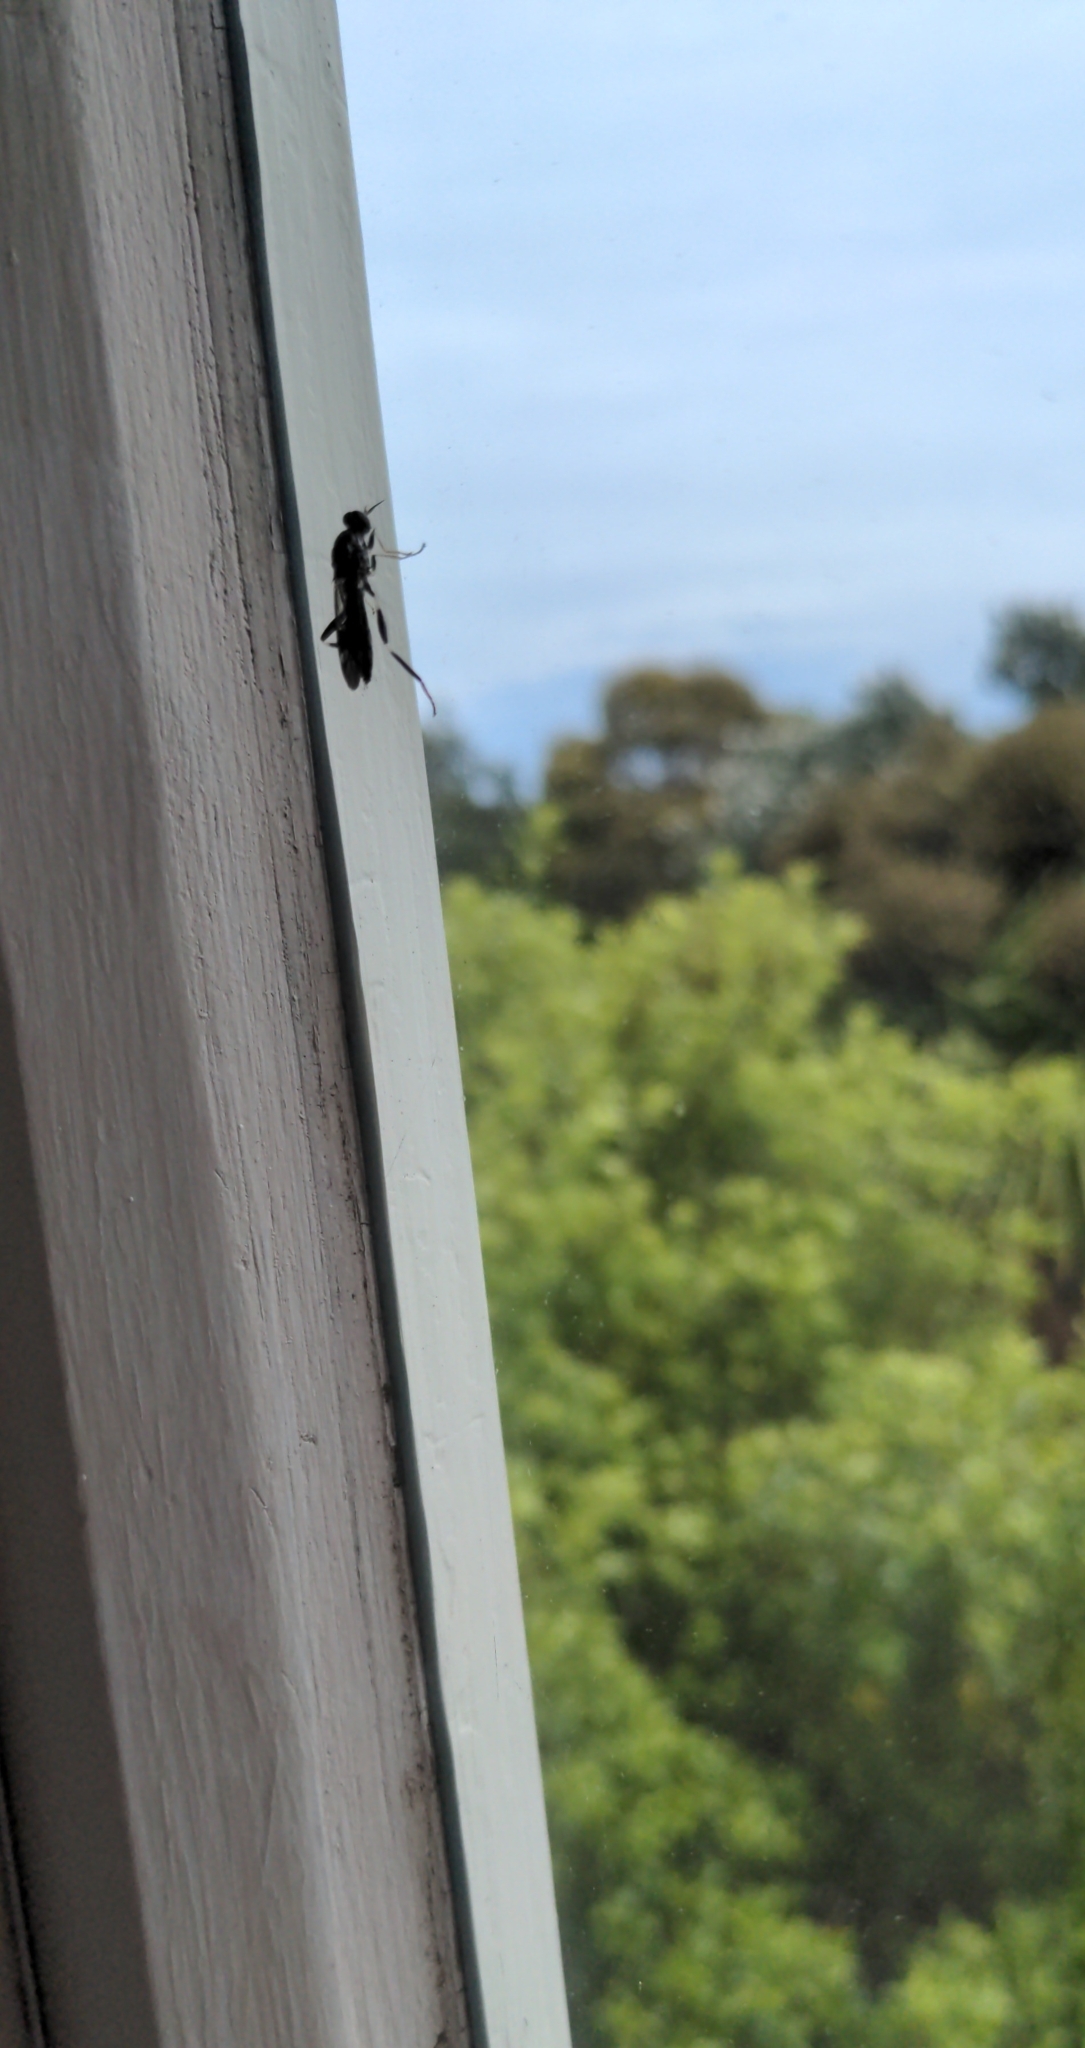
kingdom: Animalia
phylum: Arthropoda
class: Insecta
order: Diptera
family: Stratiomyidae
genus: Exaireta
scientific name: Exaireta spinigera
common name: Blue soldier fly
